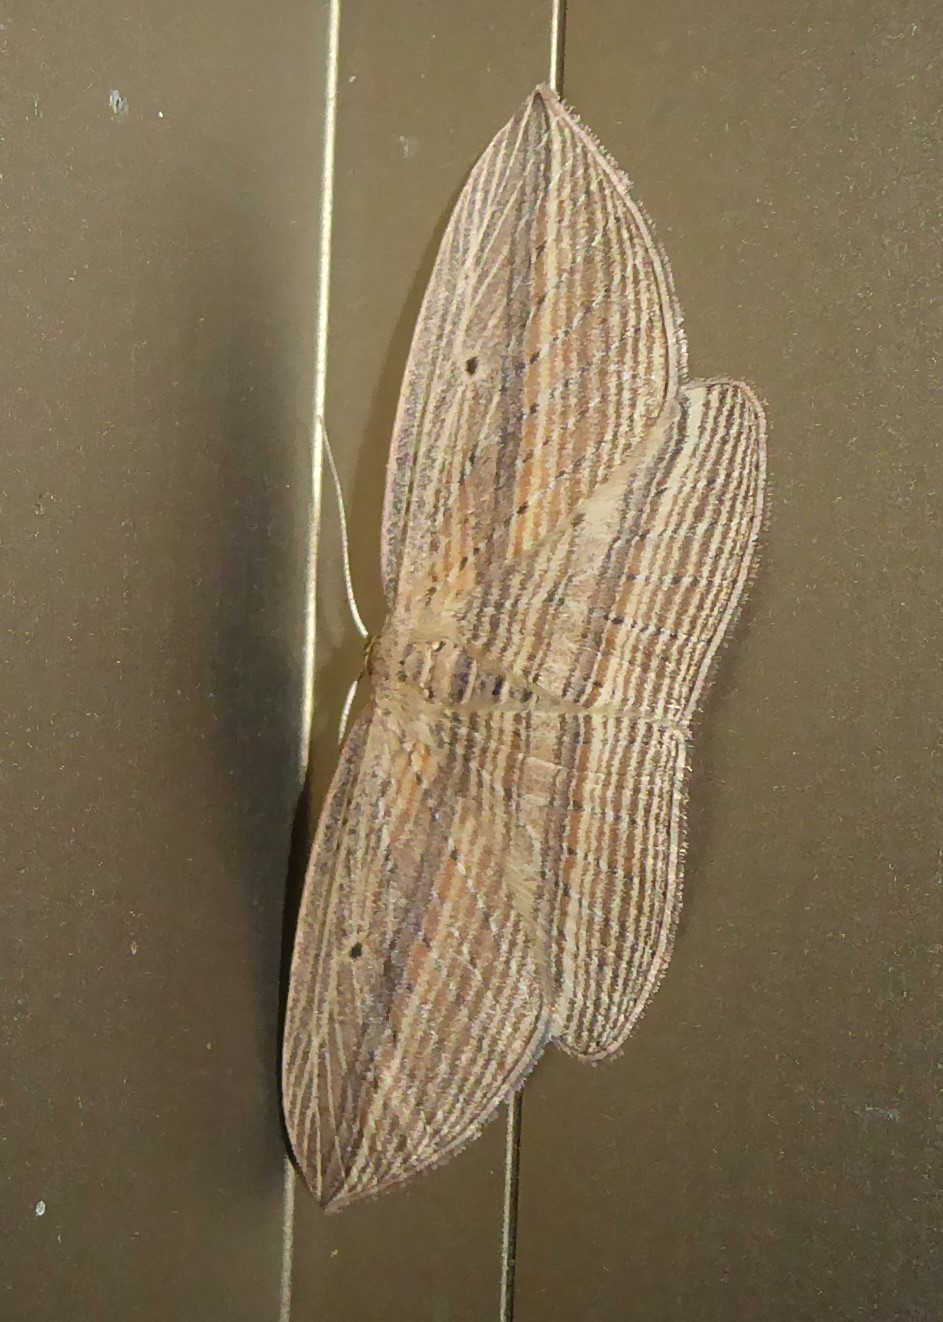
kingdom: Animalia
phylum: Arthropoda
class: Insecta
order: Lepidoptera
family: Geometridae
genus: Epiphryne
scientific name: Epiphryne verriculata
